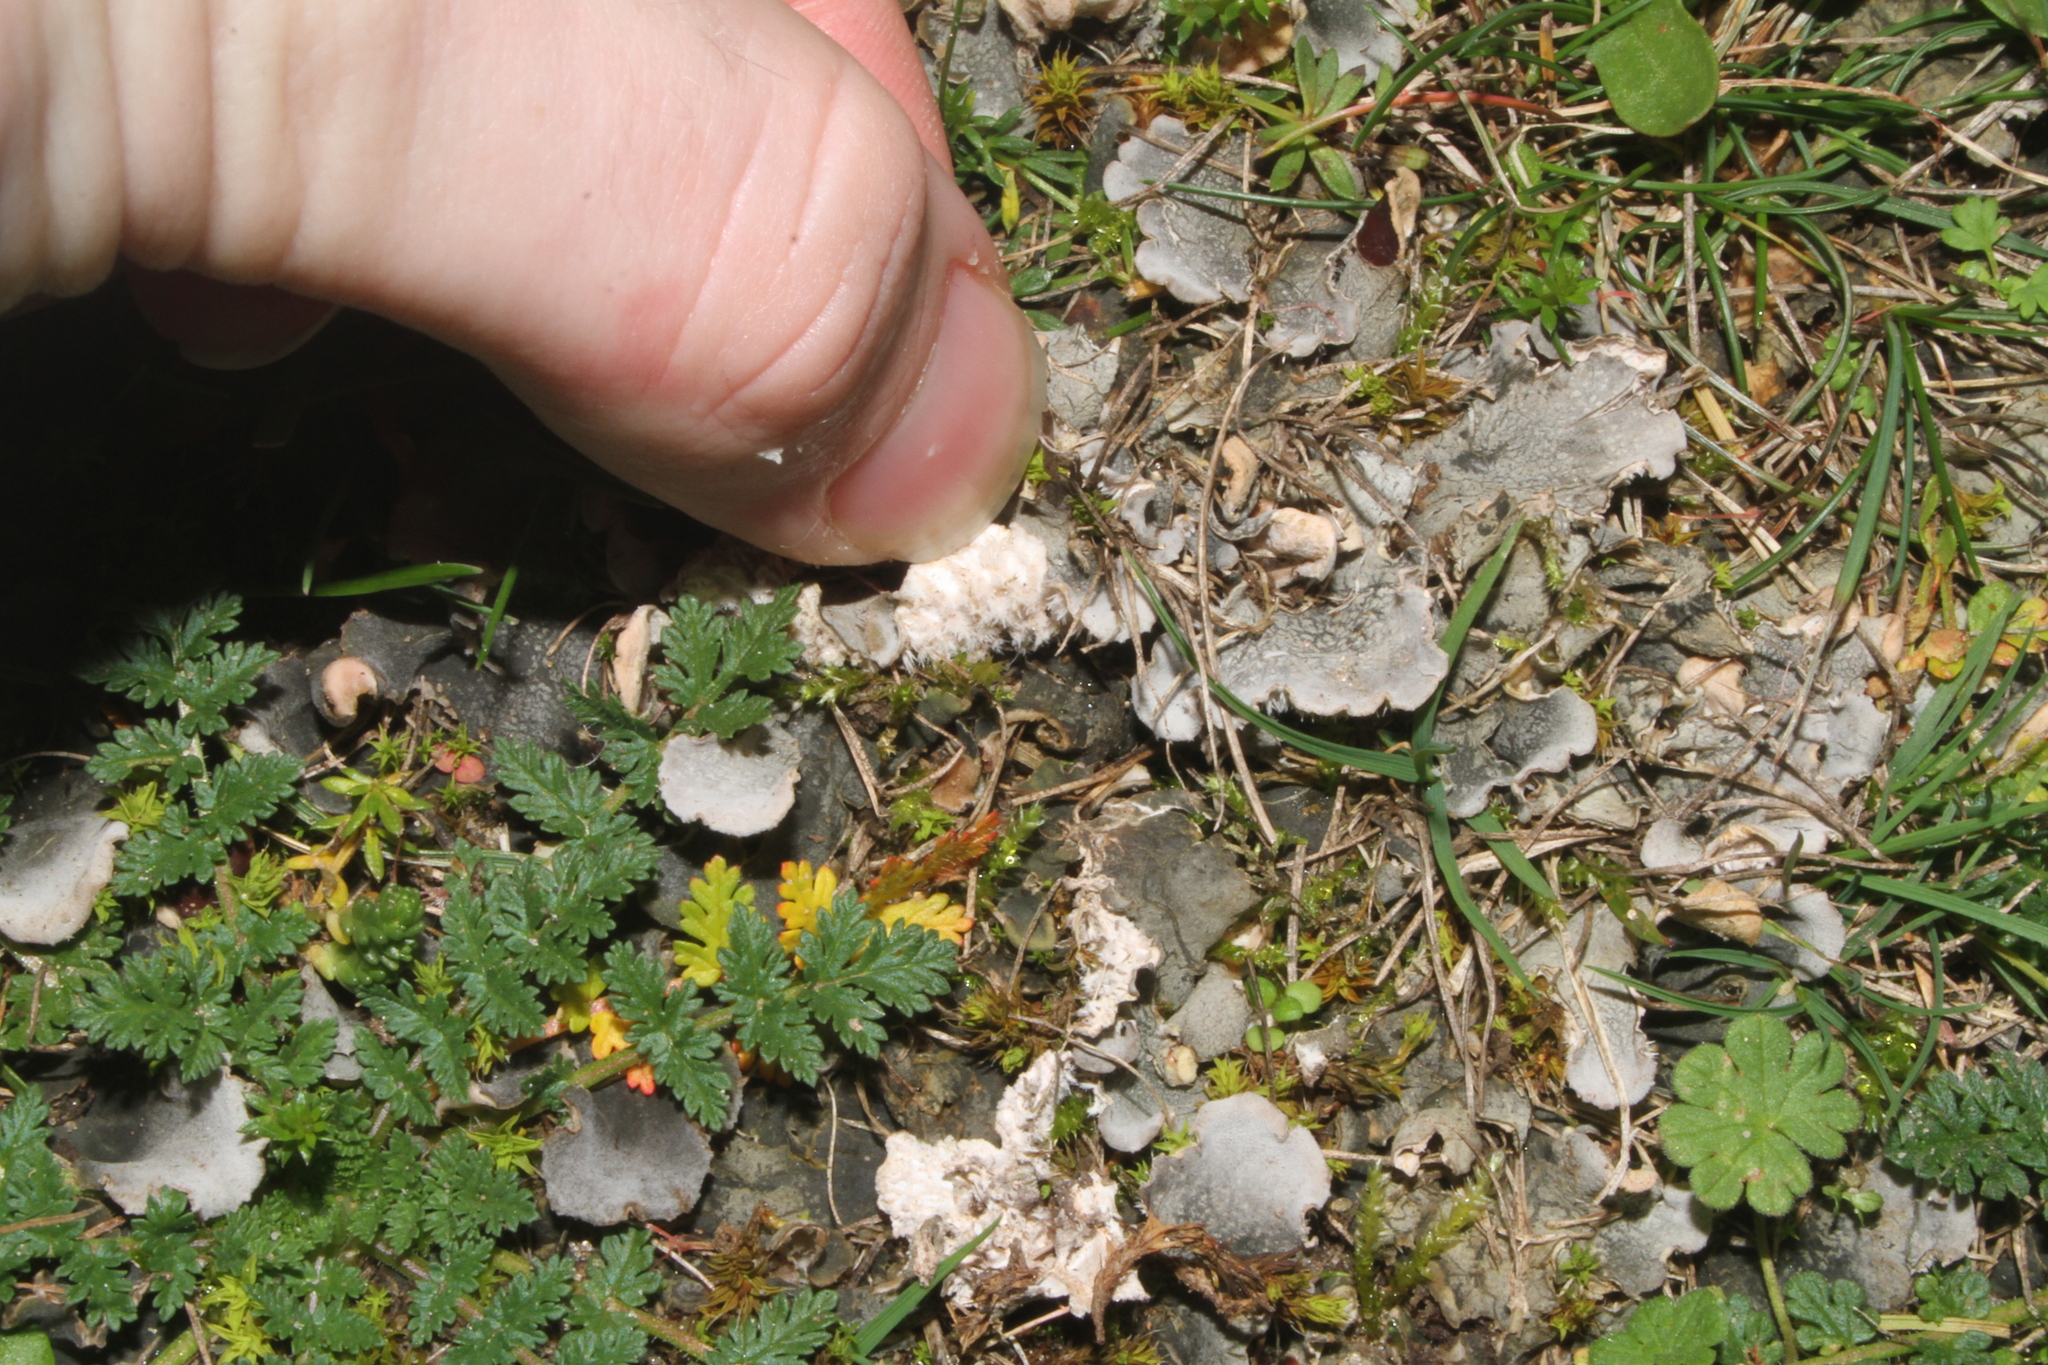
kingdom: Fungi
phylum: Ascomycota
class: Lecanoromycetes
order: Peltigerales
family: Peltigeraceae
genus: Peltigera
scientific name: Peltigera canina
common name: Dog pelt lichen
